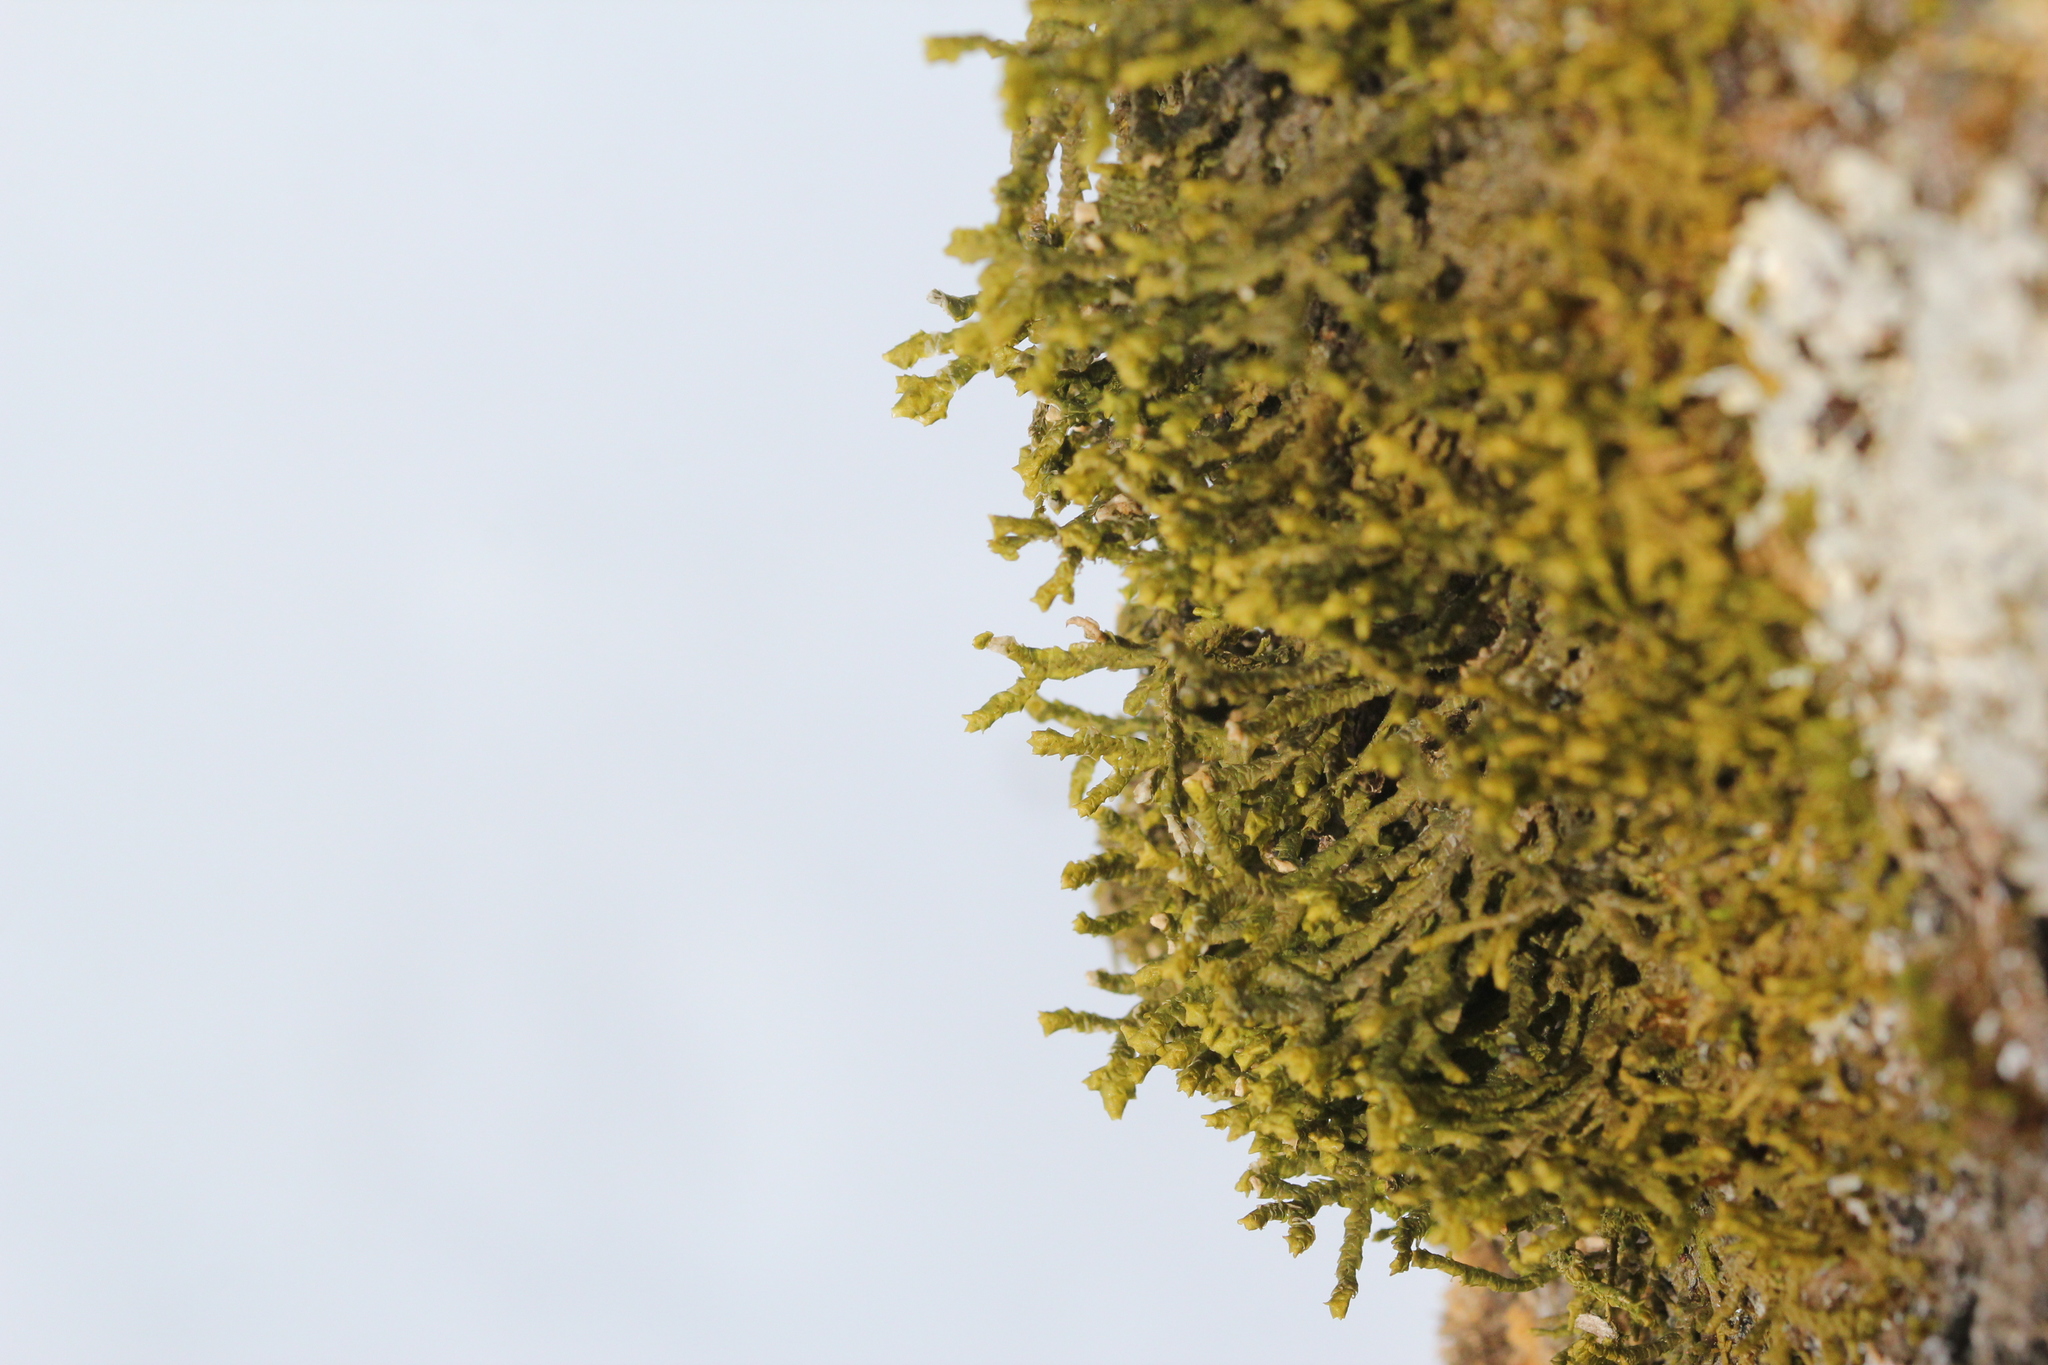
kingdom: Plantae
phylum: Marchantiophyta
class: Jungermanniopsida
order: Porellales
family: Porellaceae
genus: Porella
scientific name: Porella platyphylla
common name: Wall scalewort
